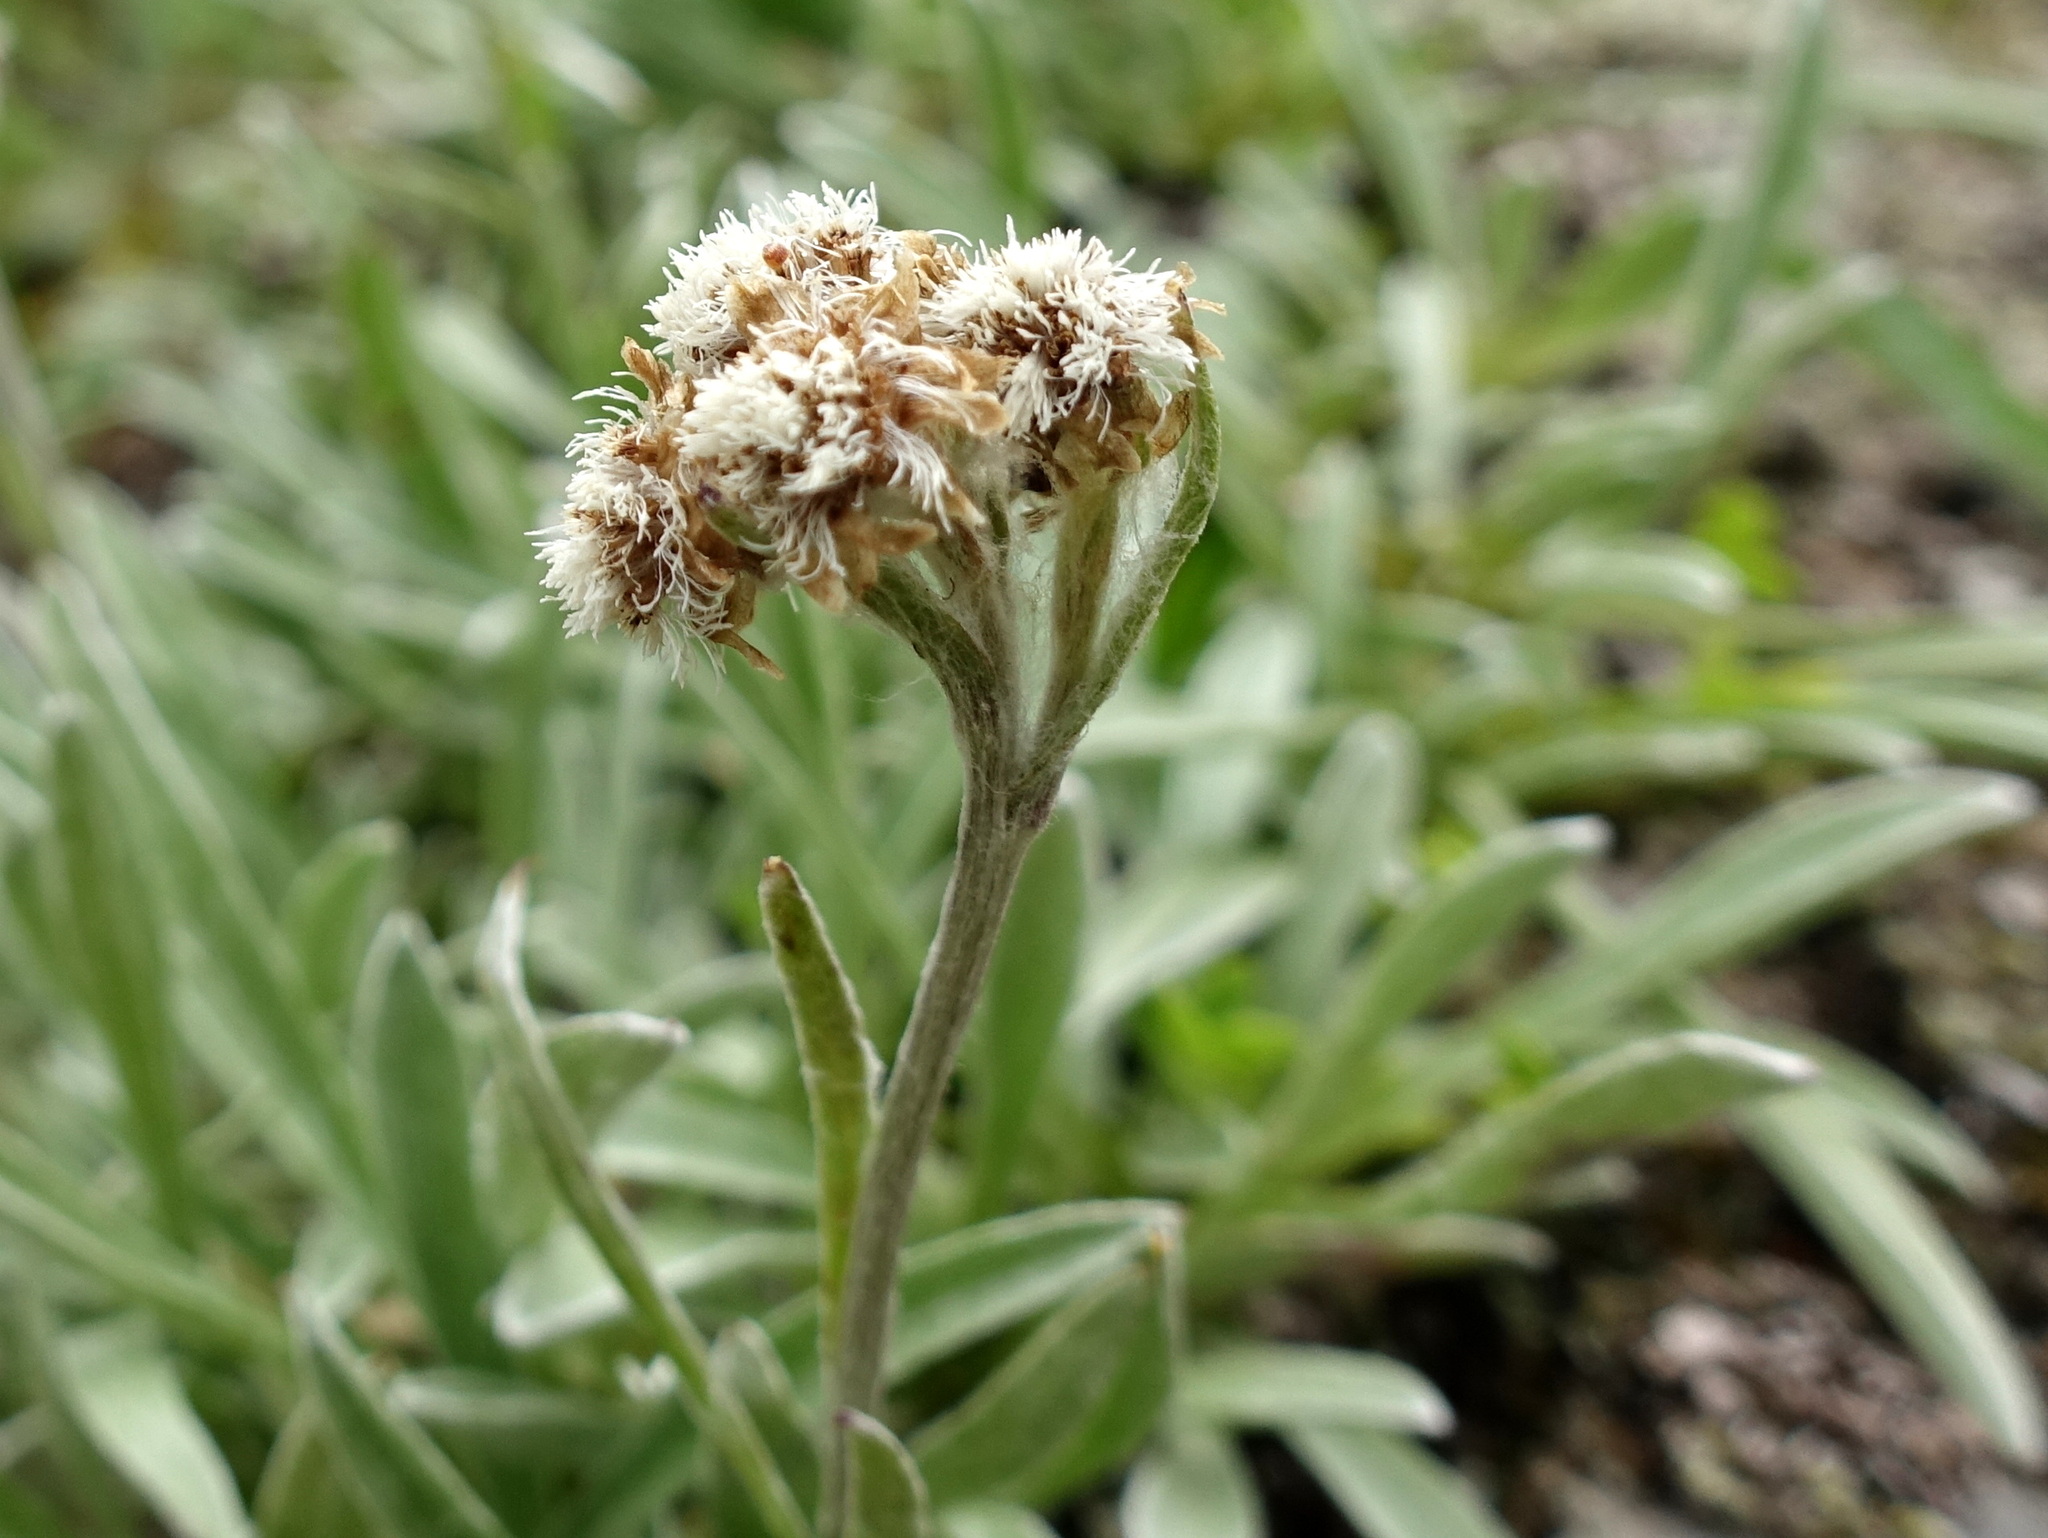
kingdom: Plantae
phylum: Tracheophyta
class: Magnoliopsida
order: Asterales
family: Asteraceae
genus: Antennaria
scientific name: Antennaria carpatica
